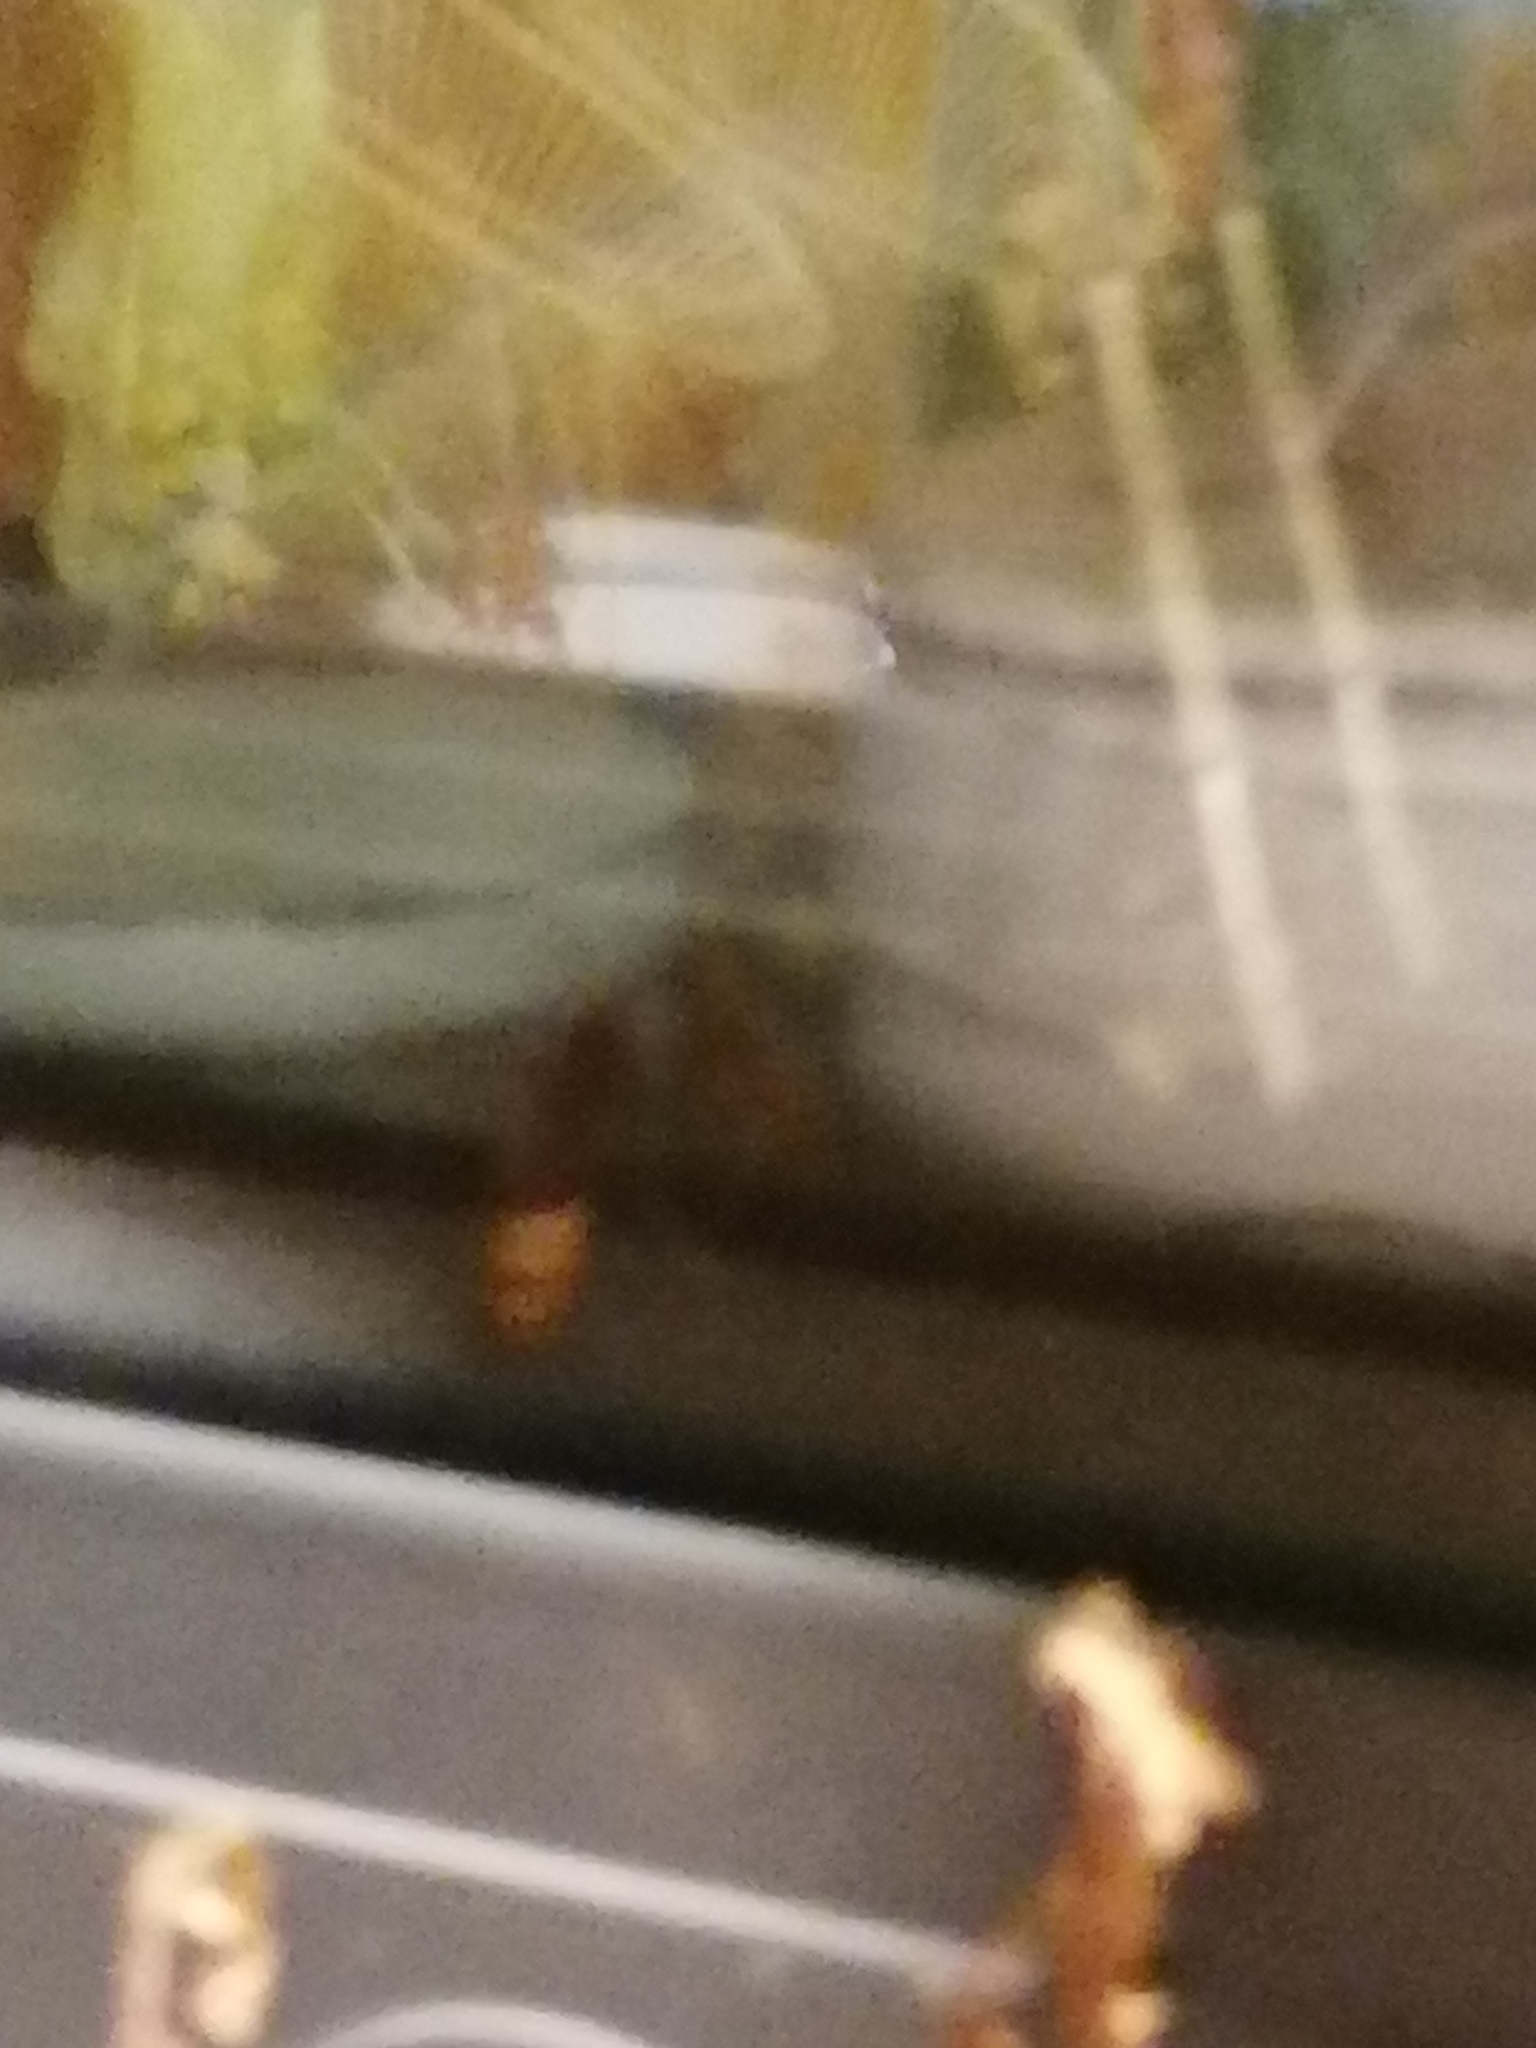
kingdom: Animalia
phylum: Arthropoda
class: Insecta
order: Hymenoptera
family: Vespidae
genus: Vespa
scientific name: Vespa crabro
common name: Hornet
